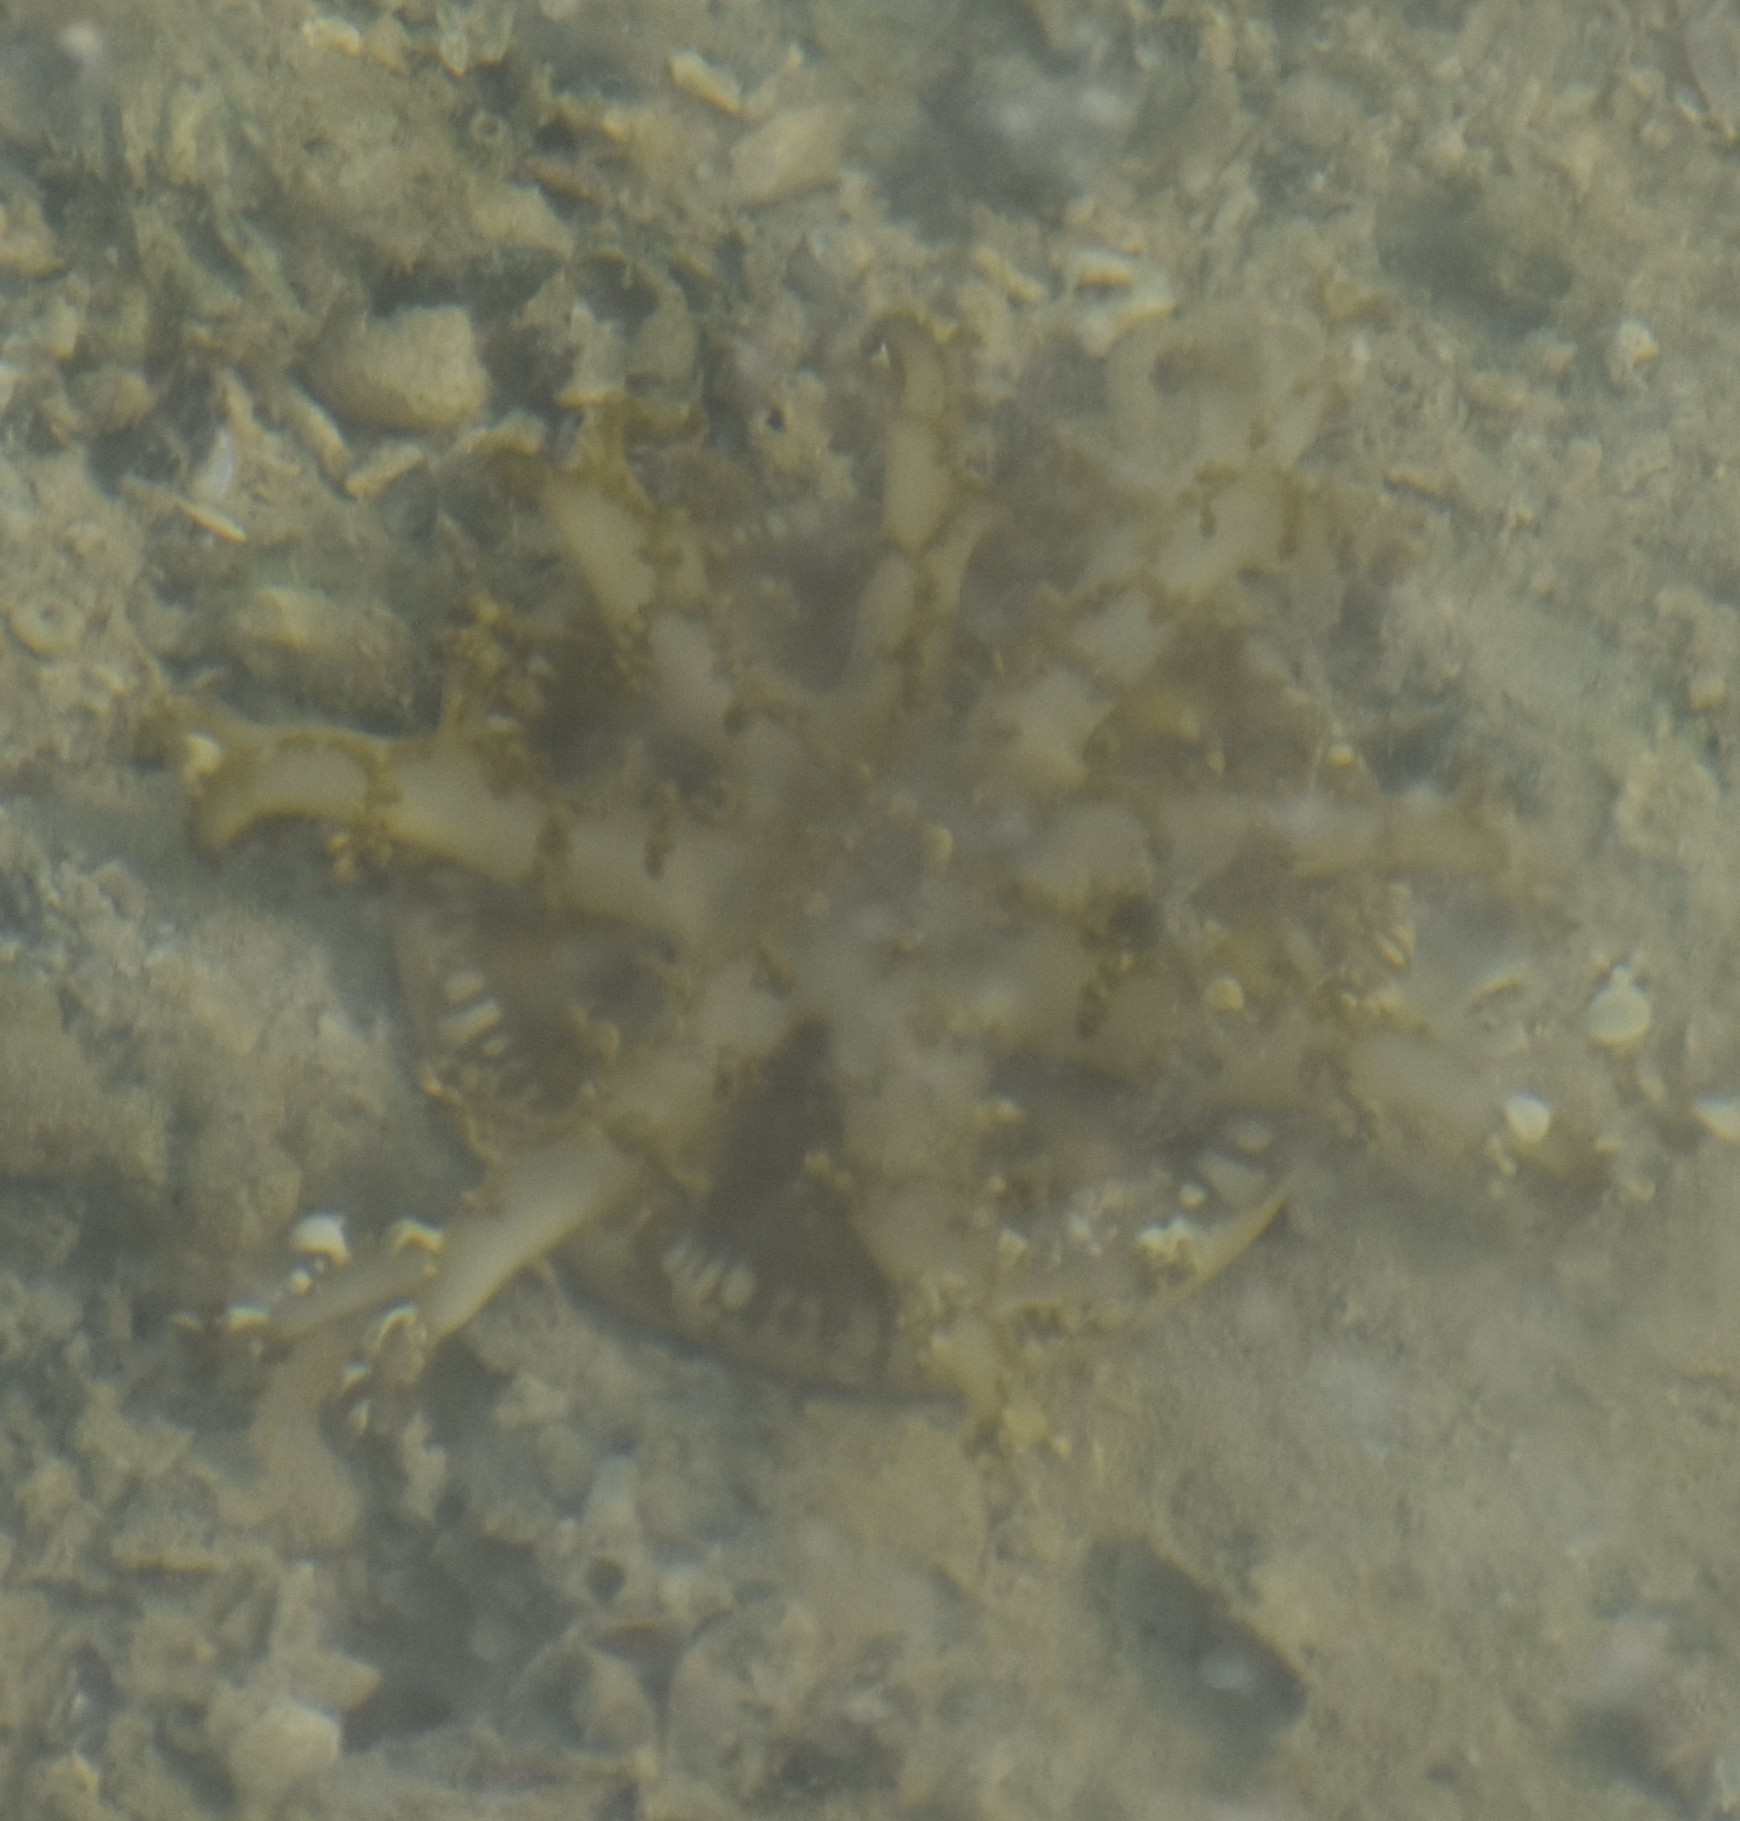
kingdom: Animalia
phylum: Cnidaria
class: Scyphozoa
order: Rhizostomeae
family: Cassiopeidae
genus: Cassiopea
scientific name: Cassiopea andromeda
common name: Upside-down jellyfish
